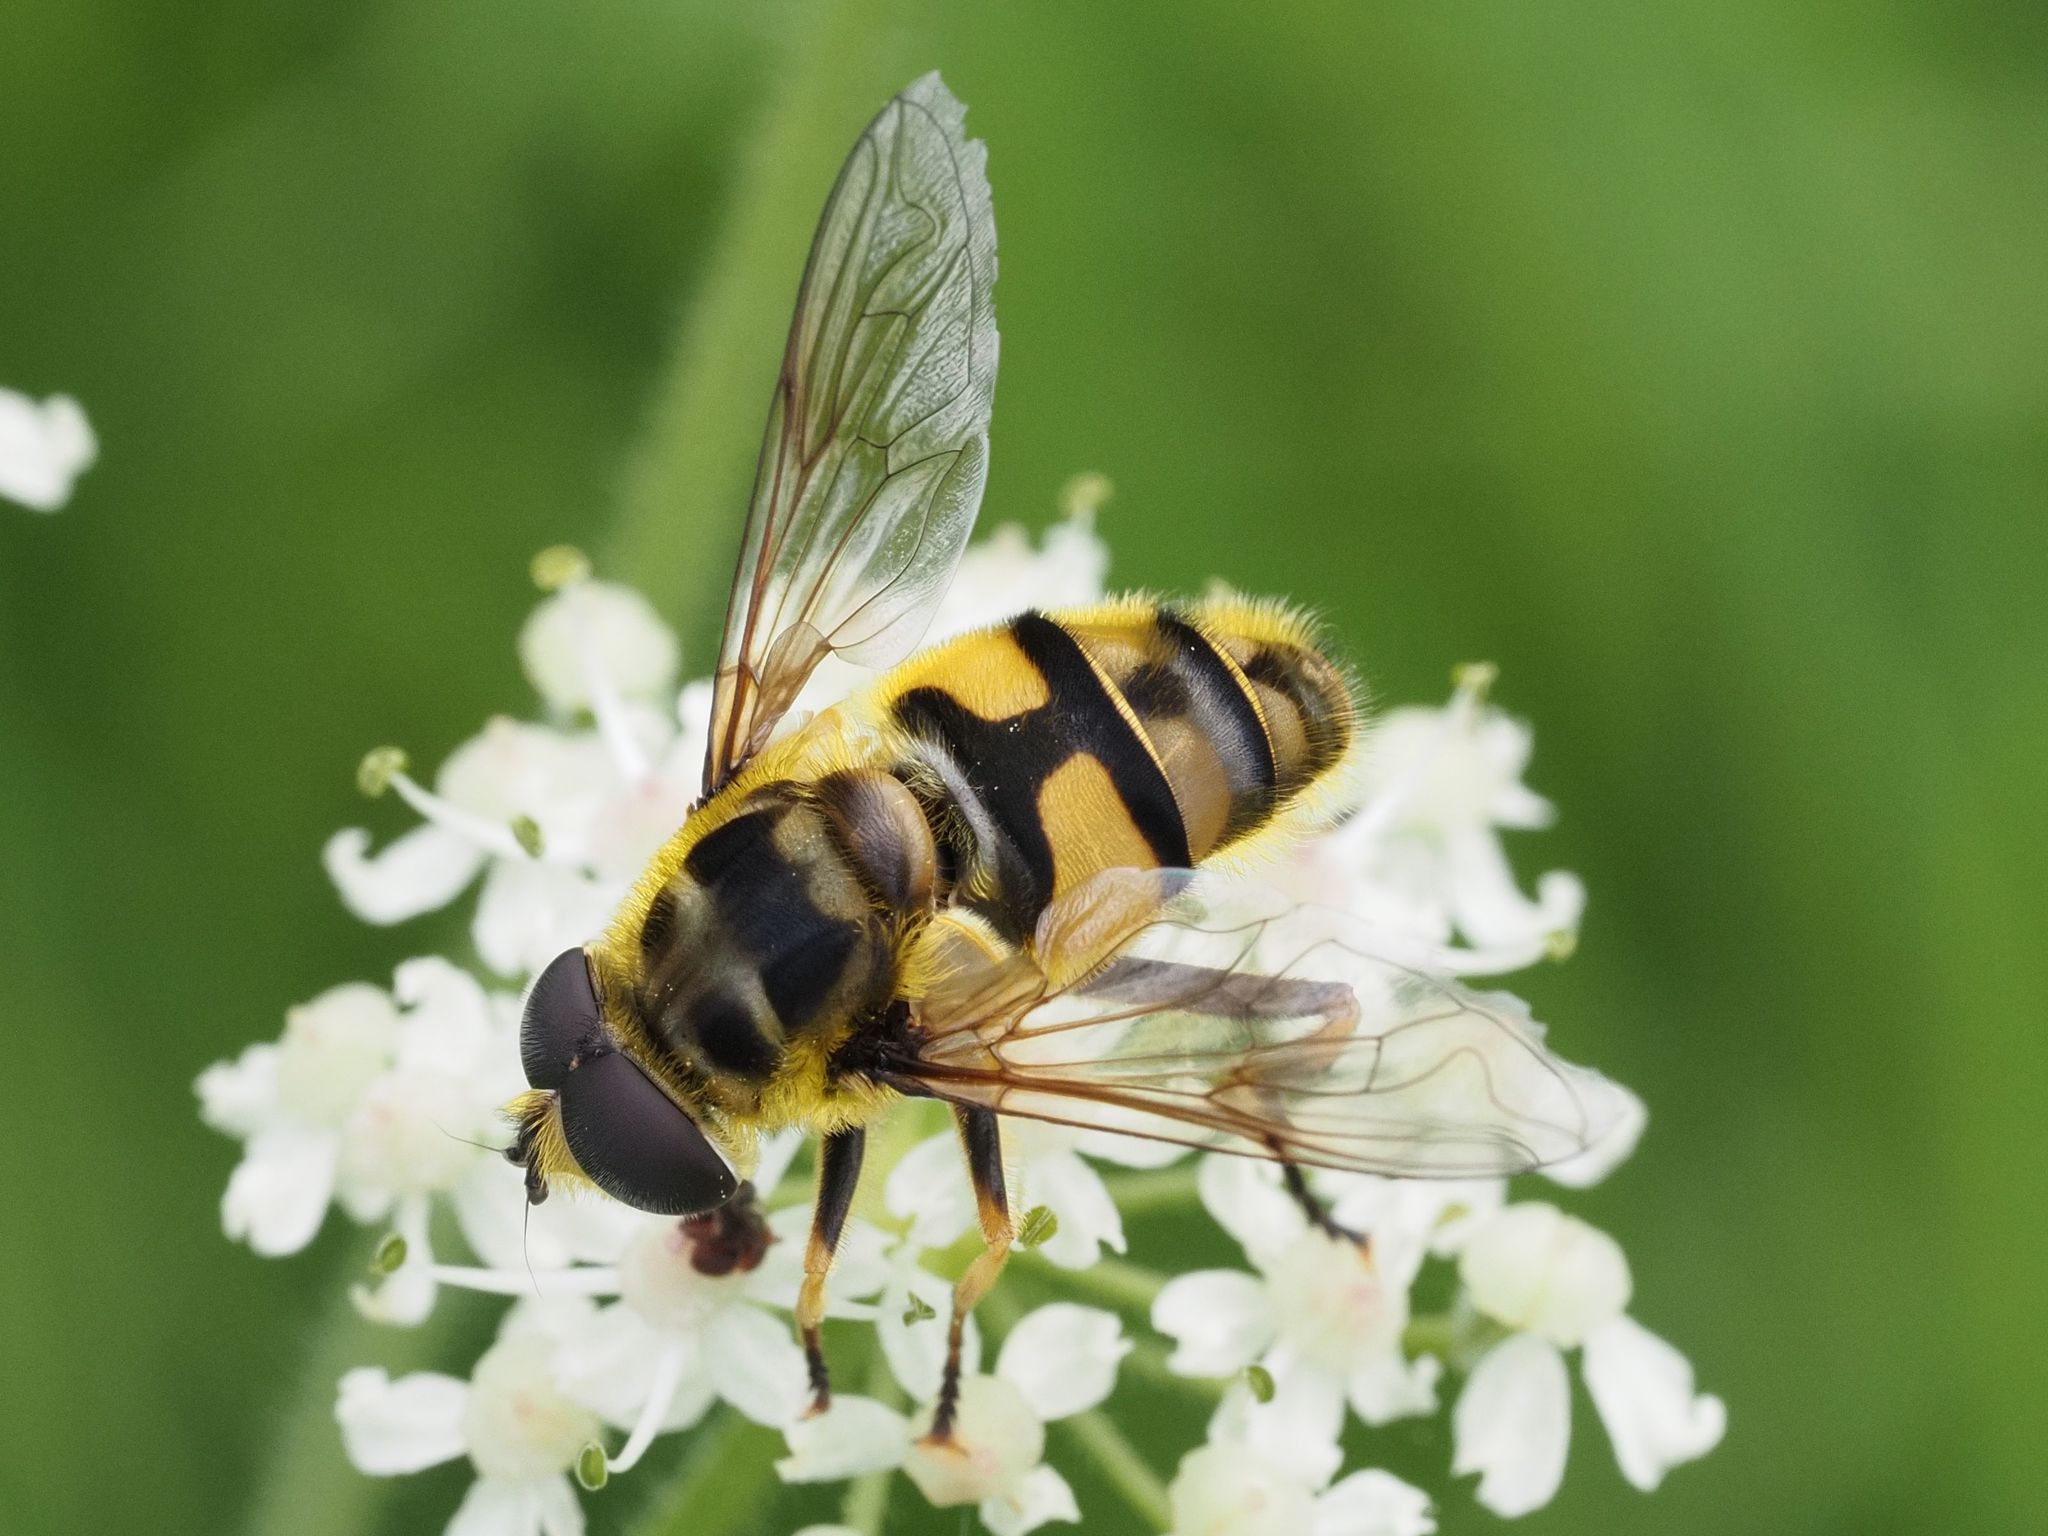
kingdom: Animalia
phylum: Arthropoda
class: Insecta
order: Diptera
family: Syrphidae
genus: Myathropa
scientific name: Myathropa florea
